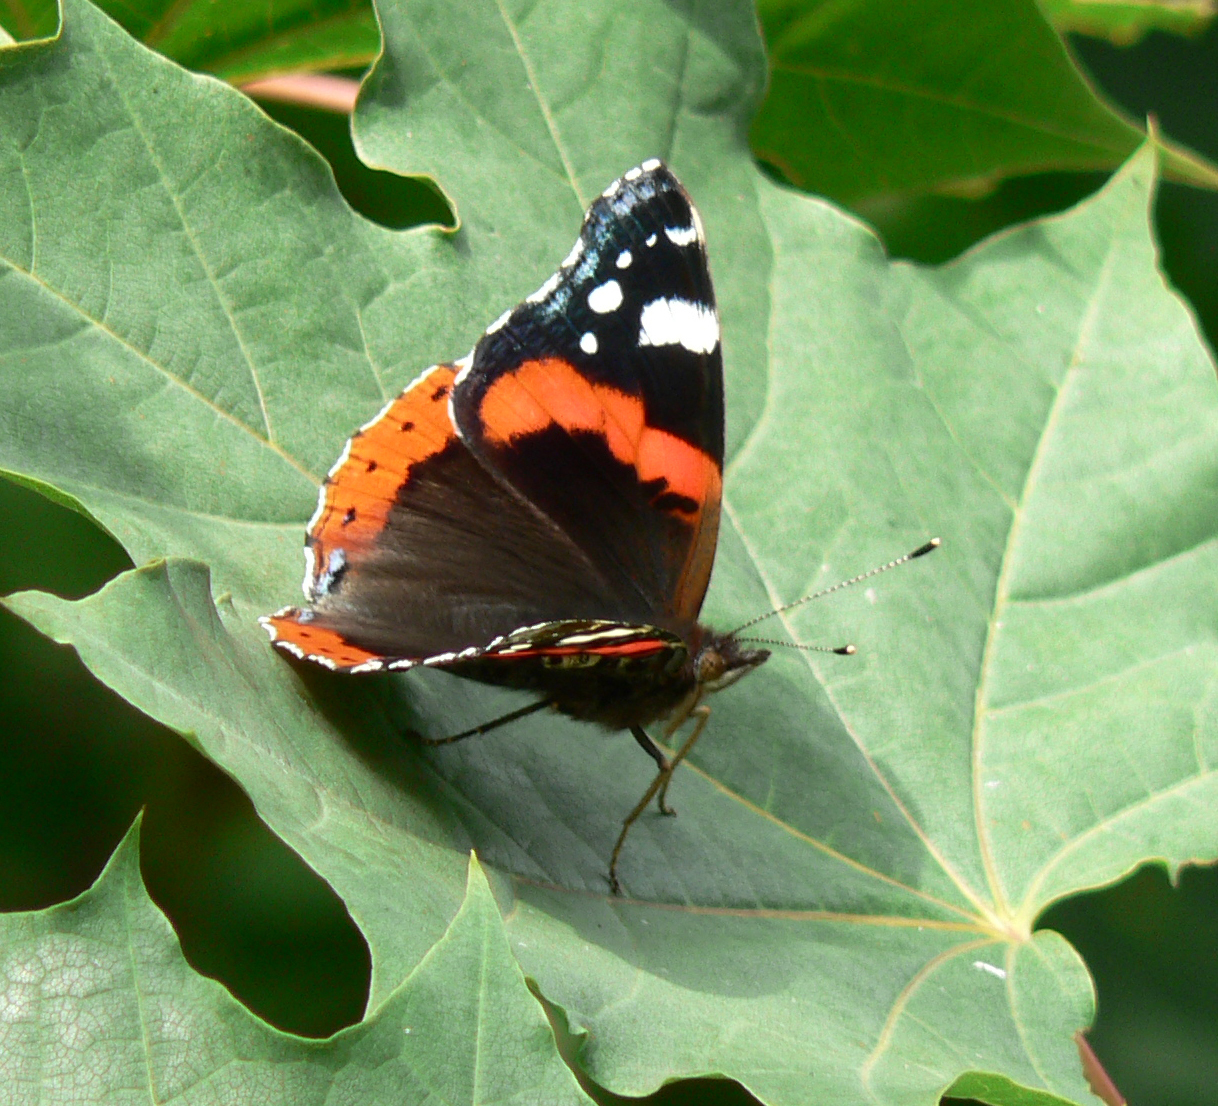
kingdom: Animalia
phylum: Arthropoda
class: Insecta
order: Lepidoptera
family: Nymphalidae
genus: Vanessa
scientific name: Vanessa atalanta
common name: Red admiral
